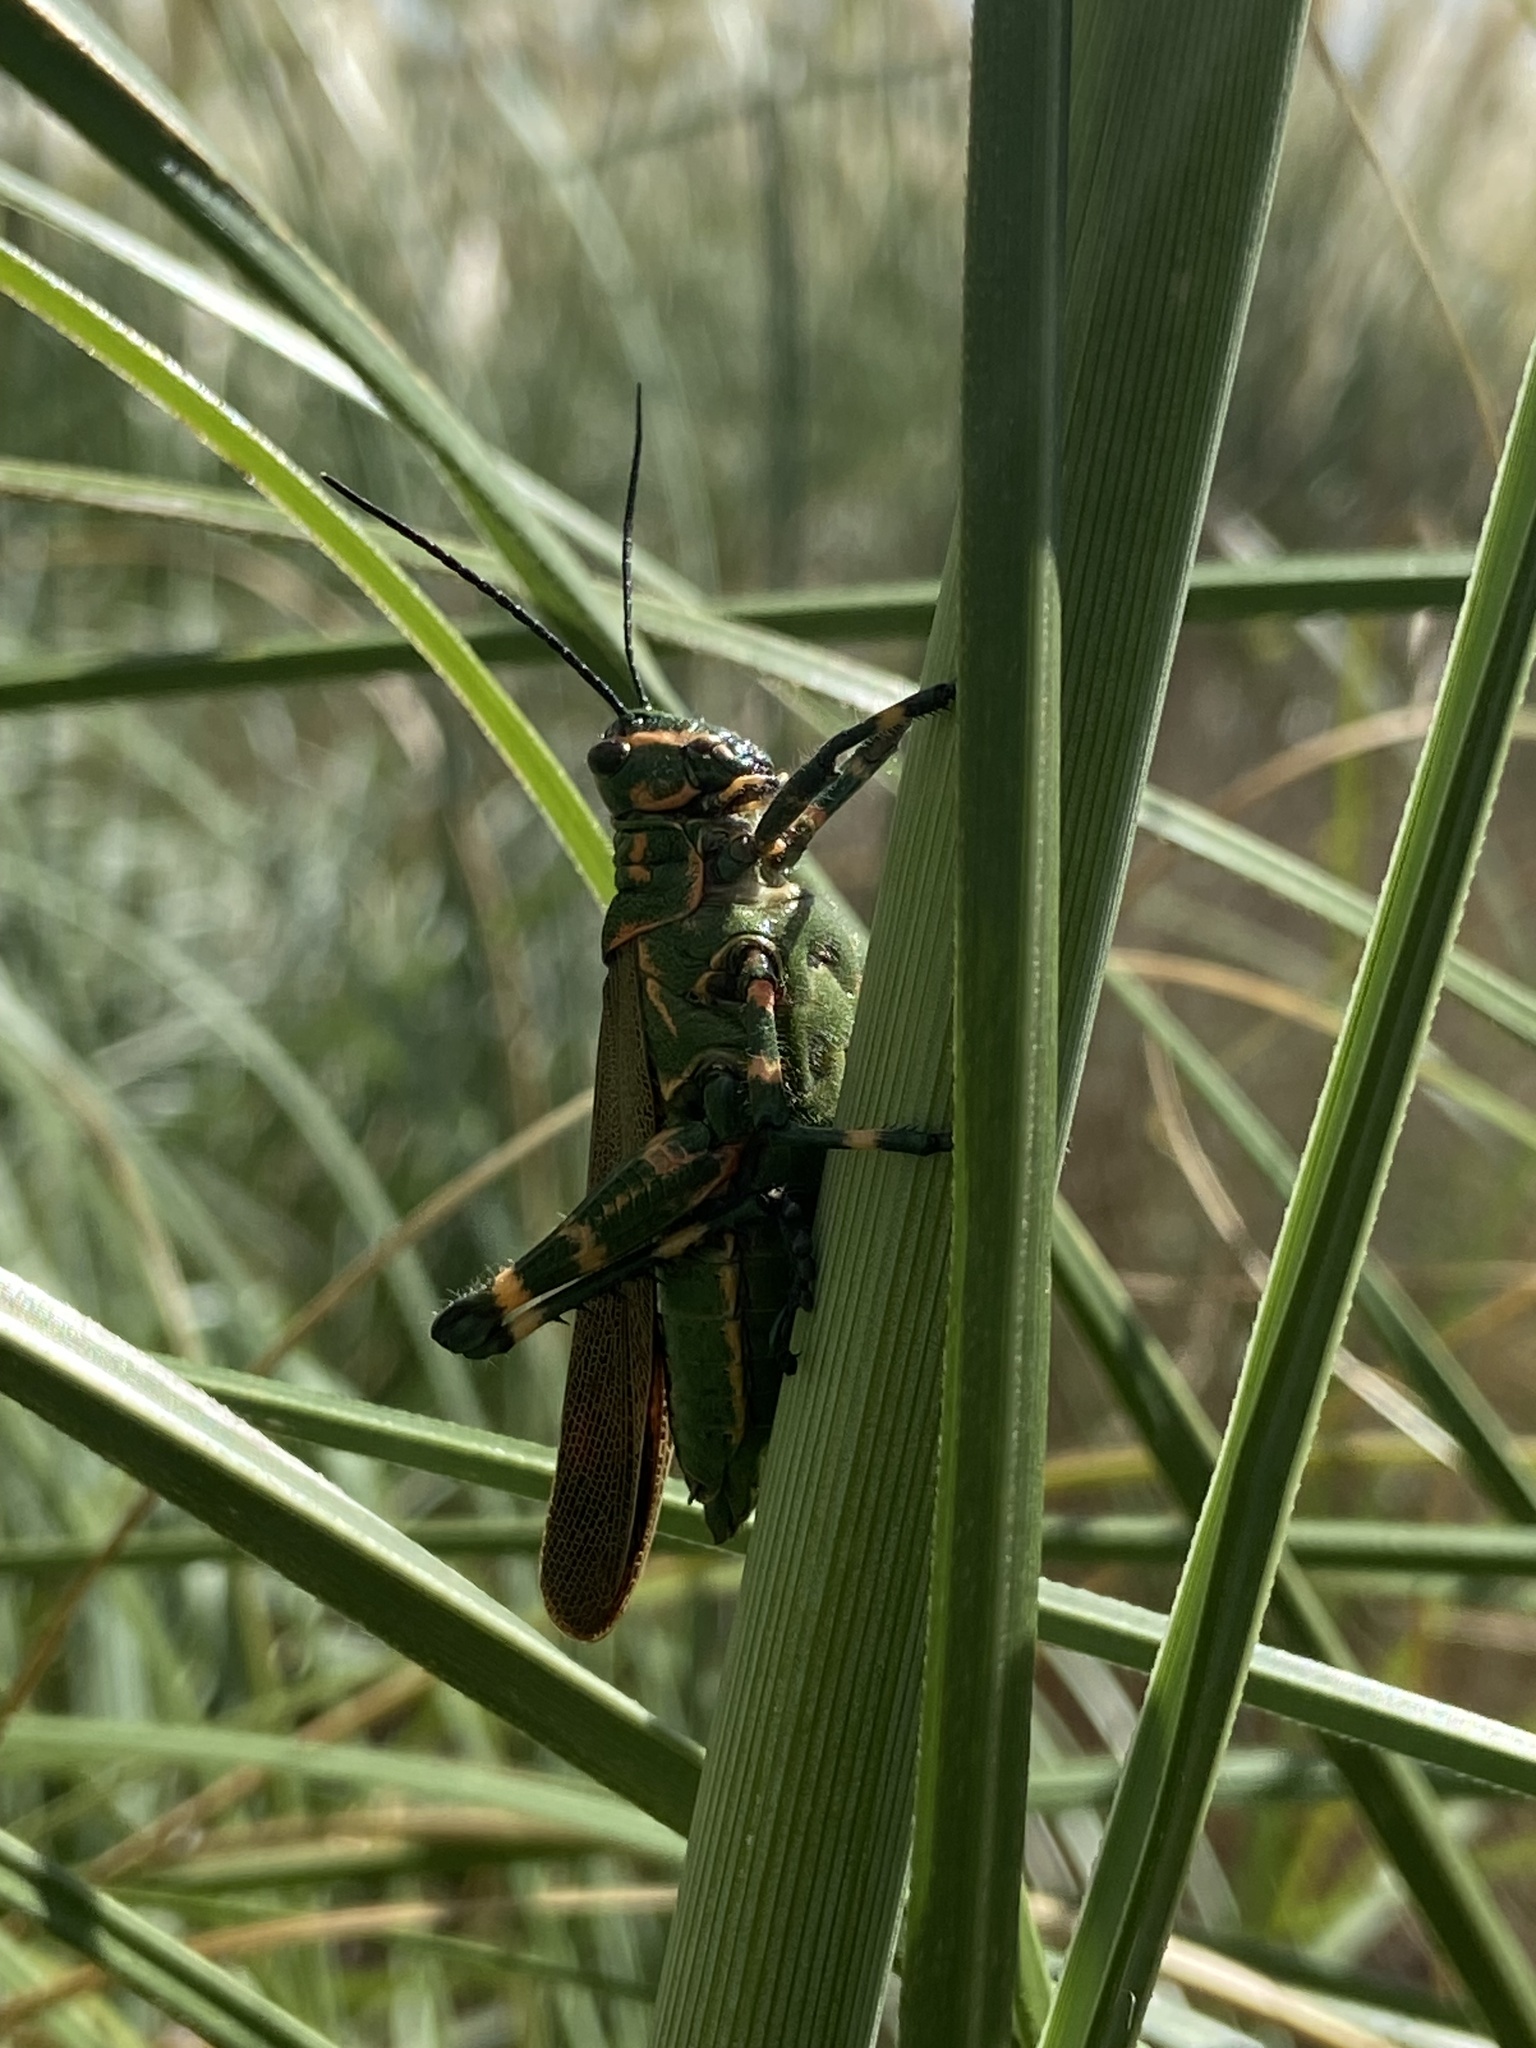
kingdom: Animalia
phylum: Arthropoda
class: Insecta
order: Orthoptera
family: Romaleidae
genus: Chromacris
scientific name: Chromacris speciosa
